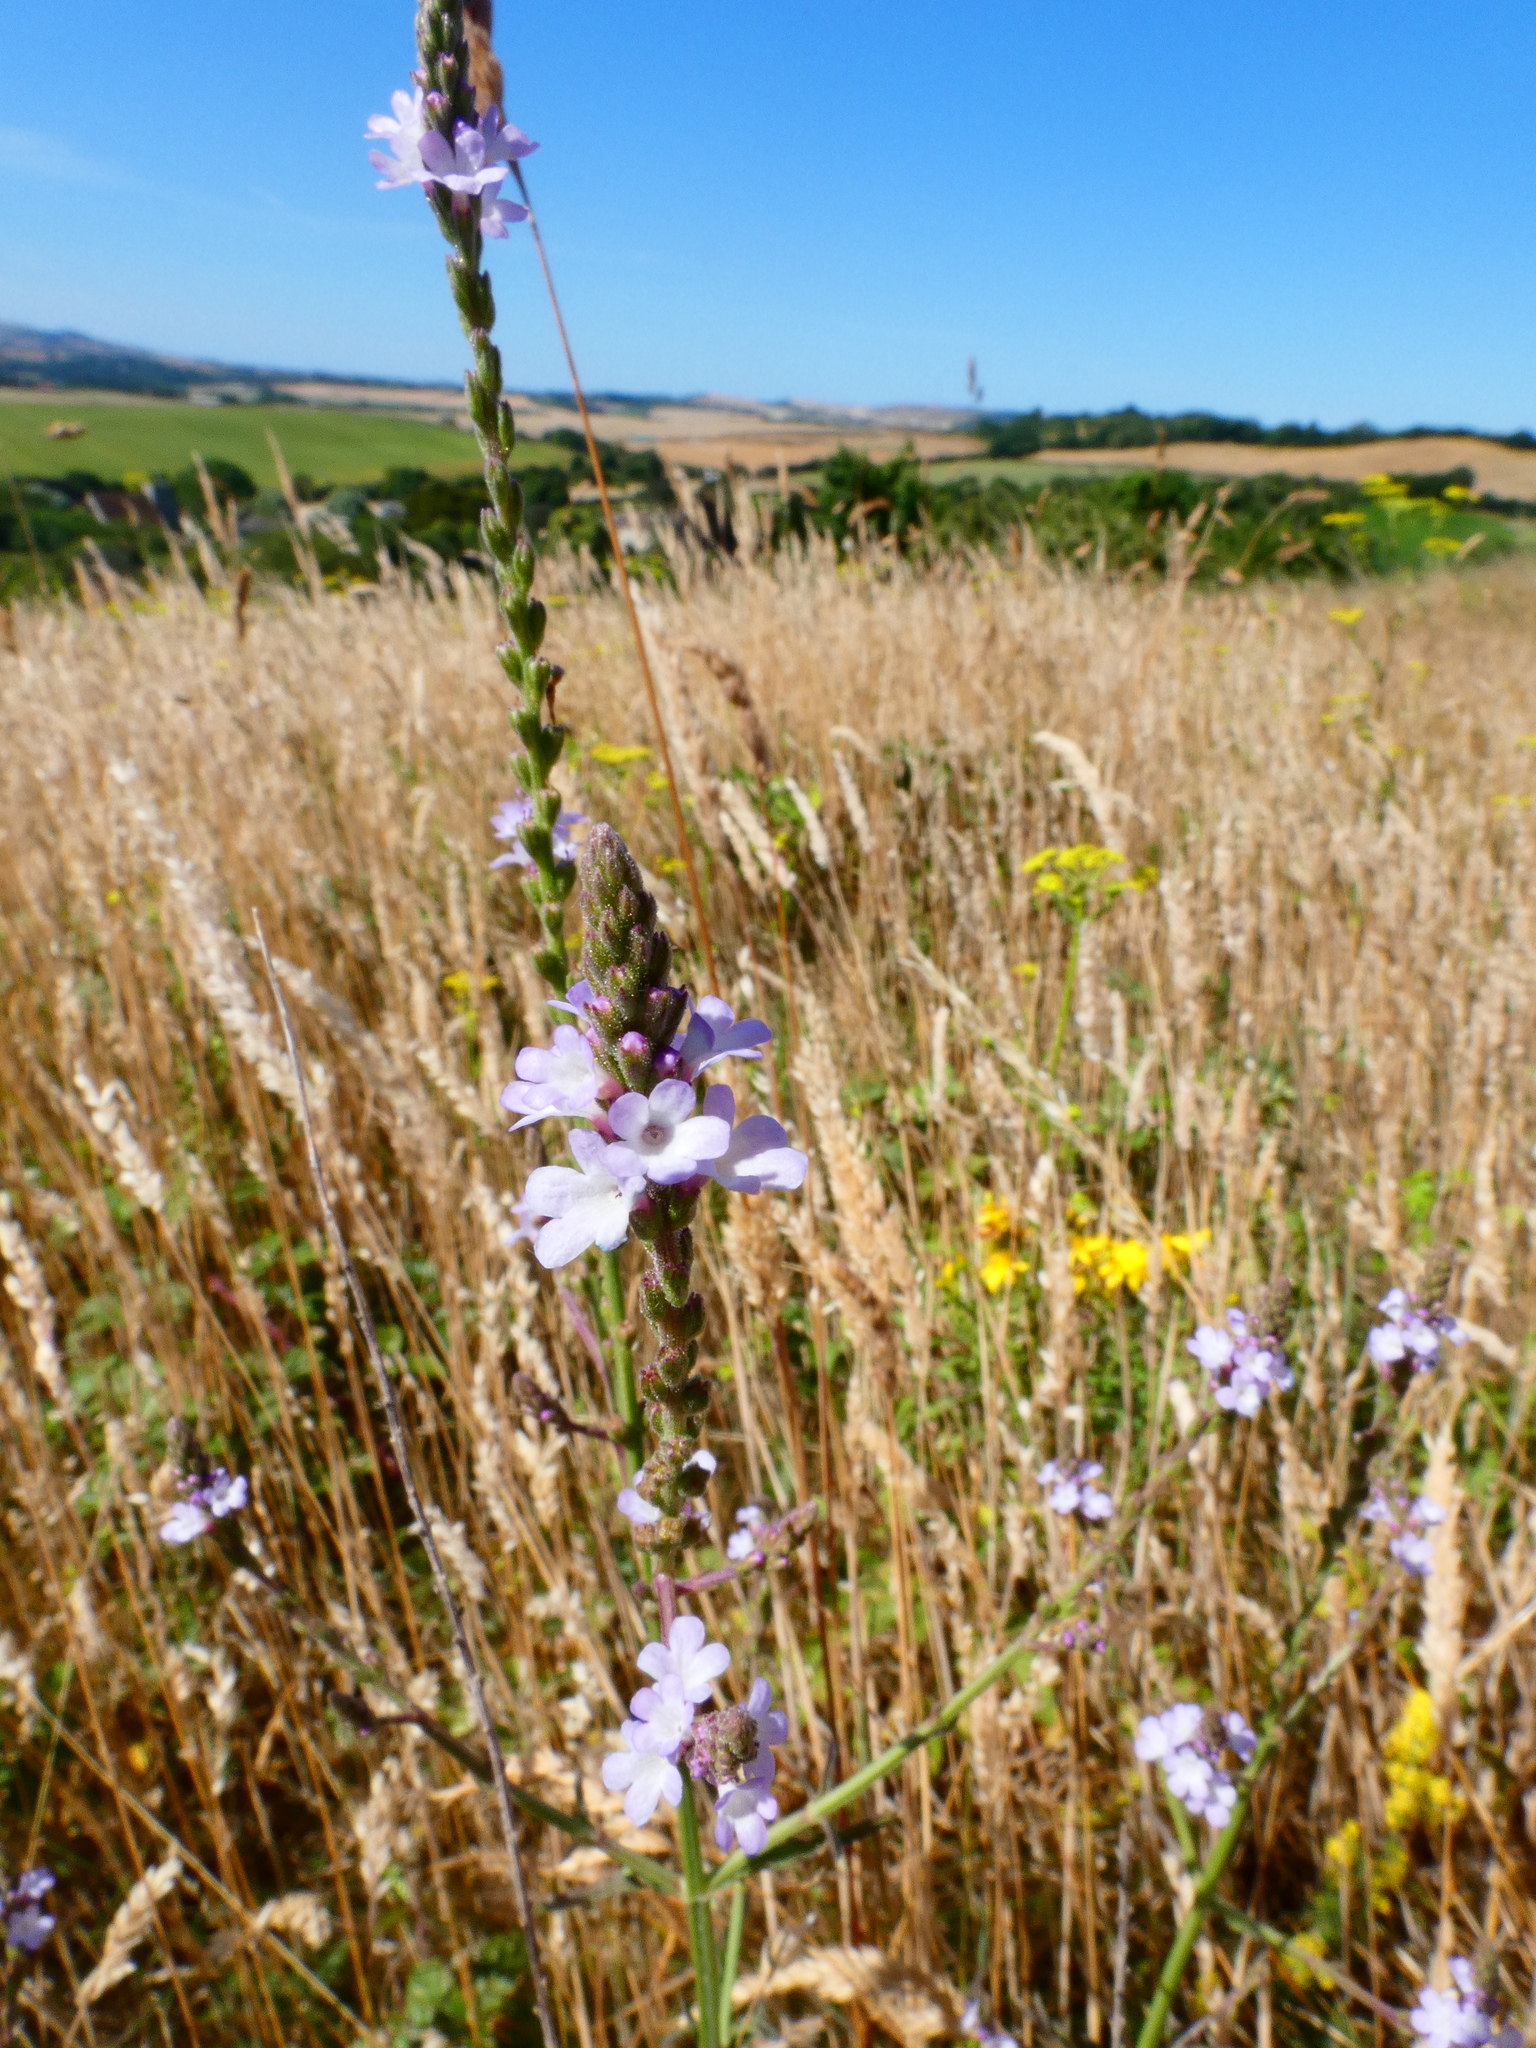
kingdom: Plantae
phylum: Tracheophyta
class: Magnoliopsida
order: Lamiales
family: Verbenaceae
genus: Verbena
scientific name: Verbena officinalis
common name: Vervain
